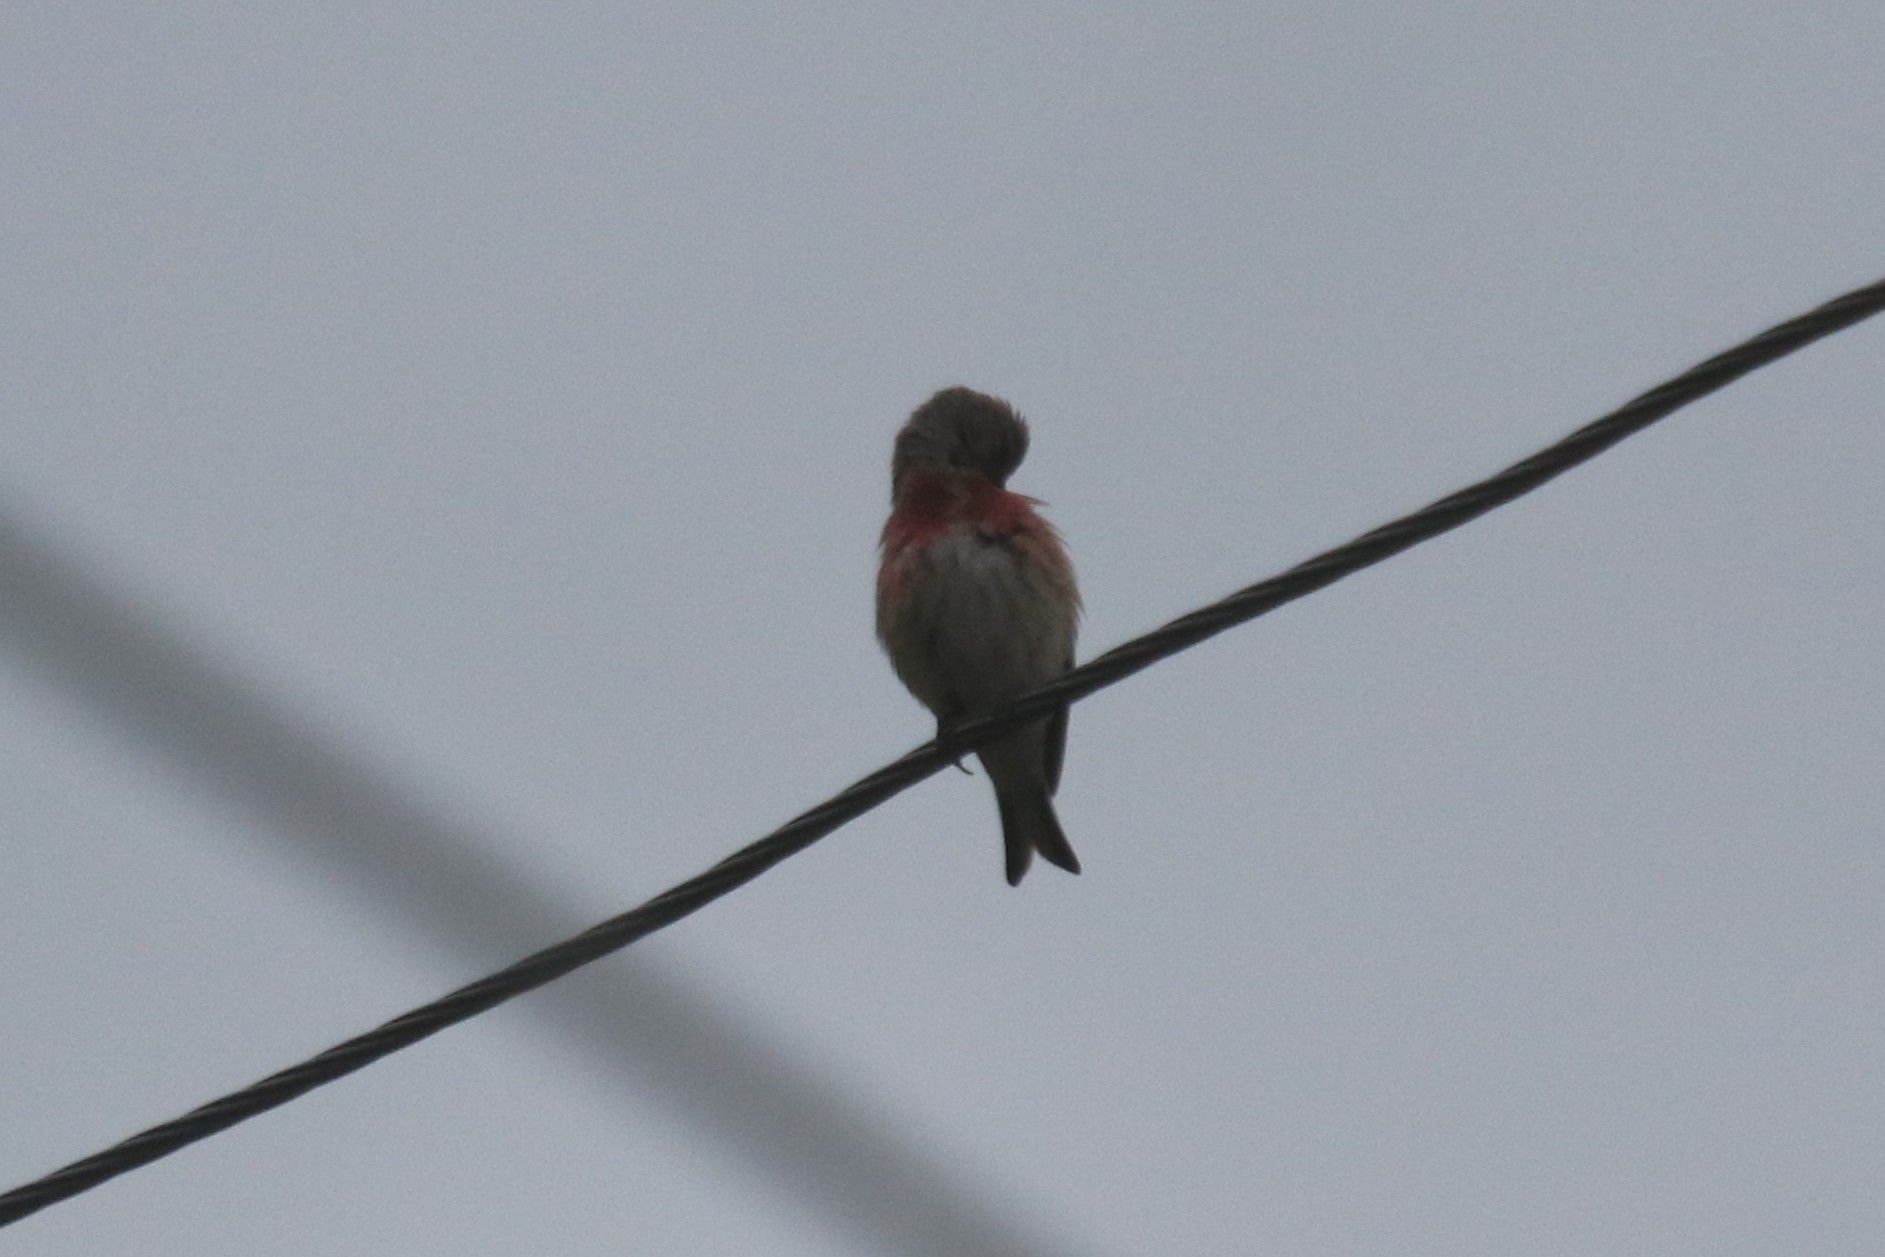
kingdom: Animalia
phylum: Chordata
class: Aves
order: Passeriformes
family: Fringillidae
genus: Linaria
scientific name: Linaria cannabina
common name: Common linnet
